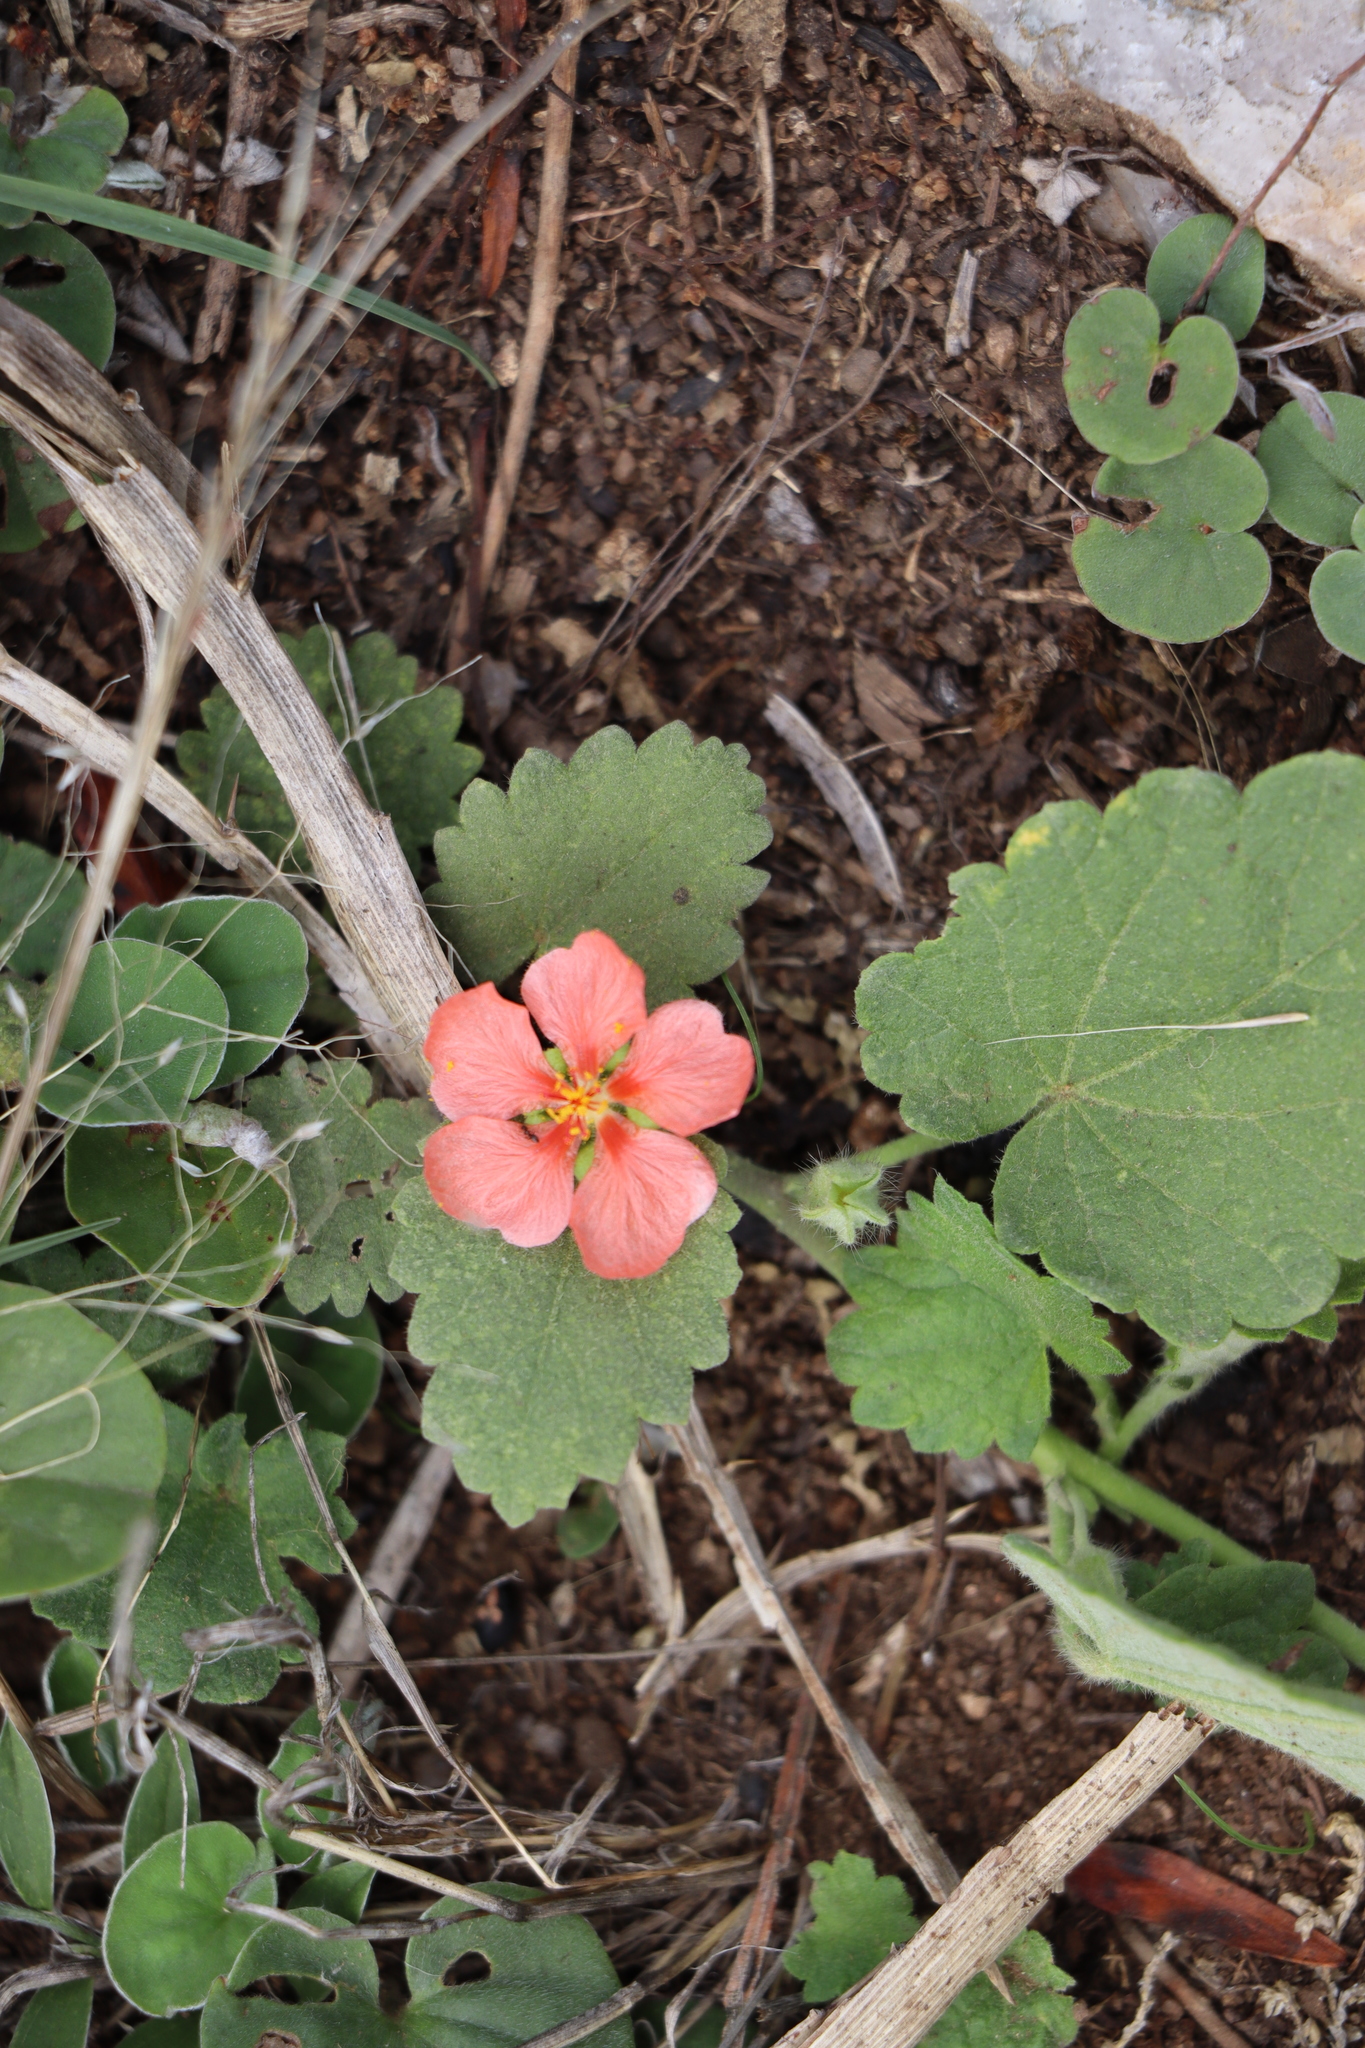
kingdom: Plantae
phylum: Tracheophyta
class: Magnoliopsida
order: Malvales
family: Malvaceae
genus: Krapovickasia
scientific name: Krapovickasia flavescens
